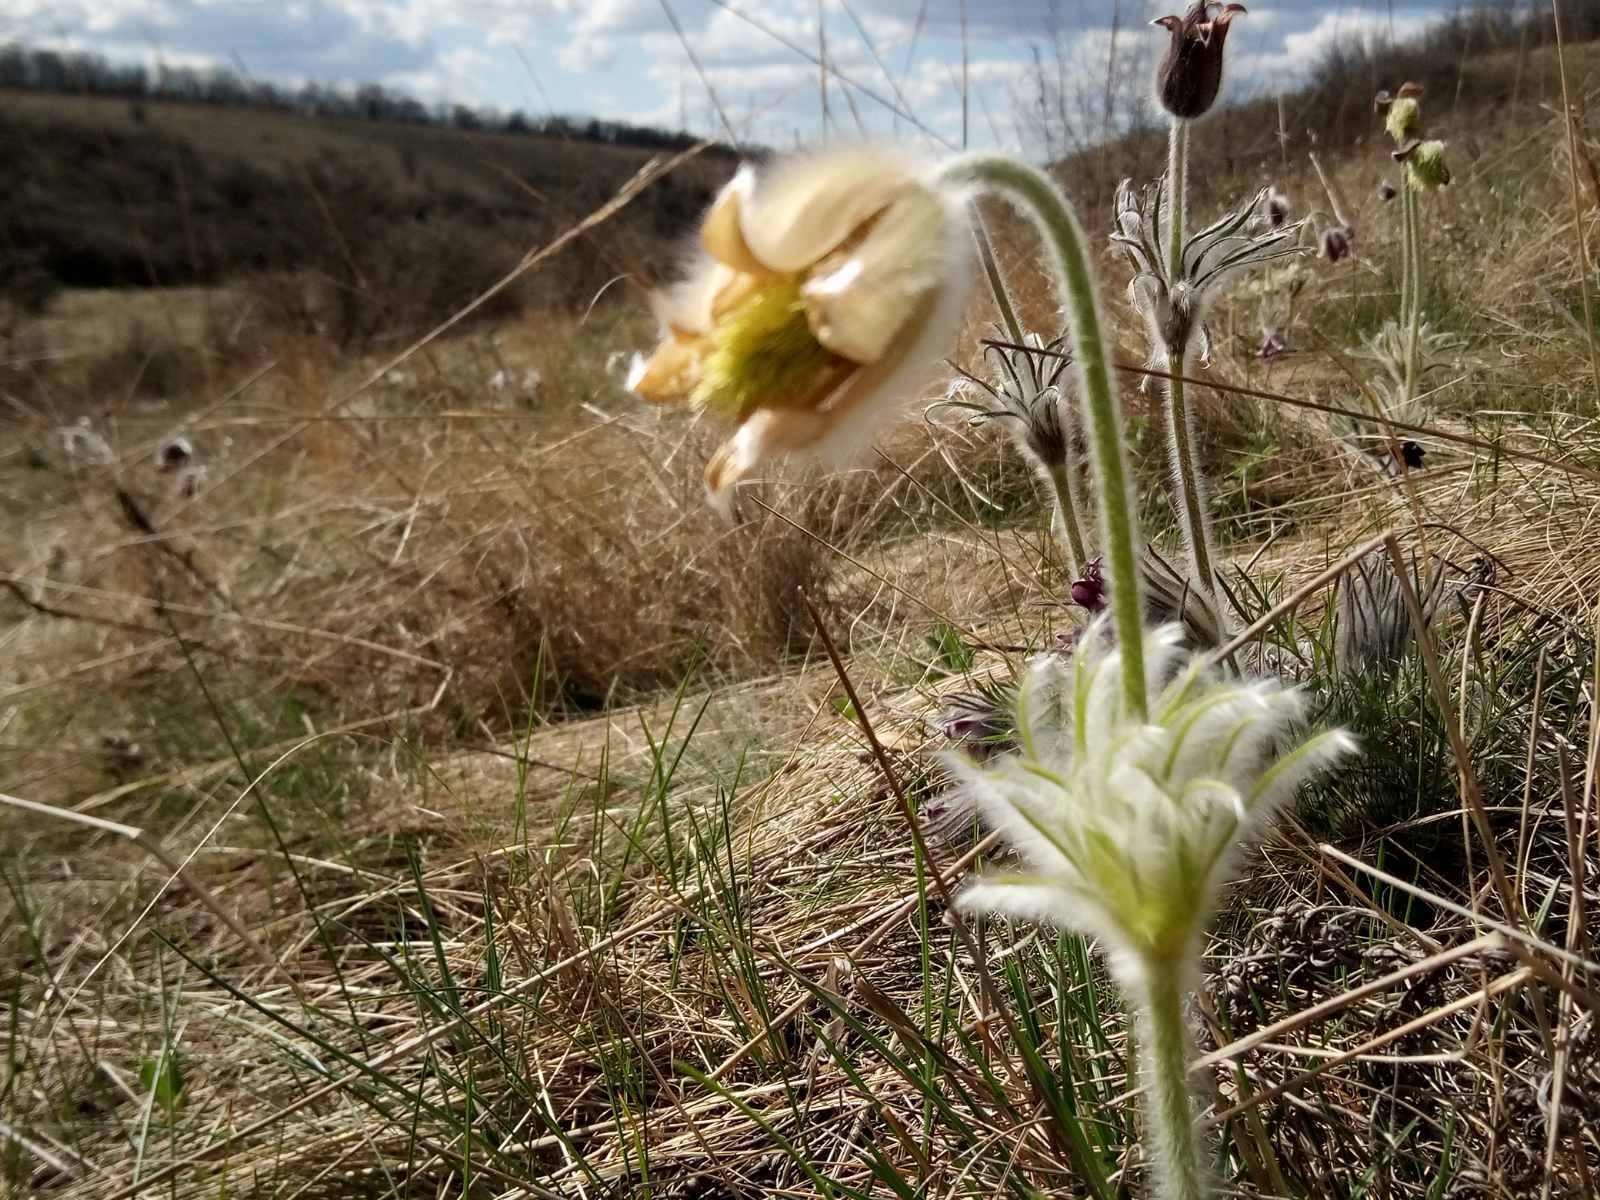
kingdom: Plantae
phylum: Tracheophyta
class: Magnoliopsida
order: Ranunculales
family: Ranunculaceae
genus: Pulsatilla
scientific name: Pulsatilla pratensis
